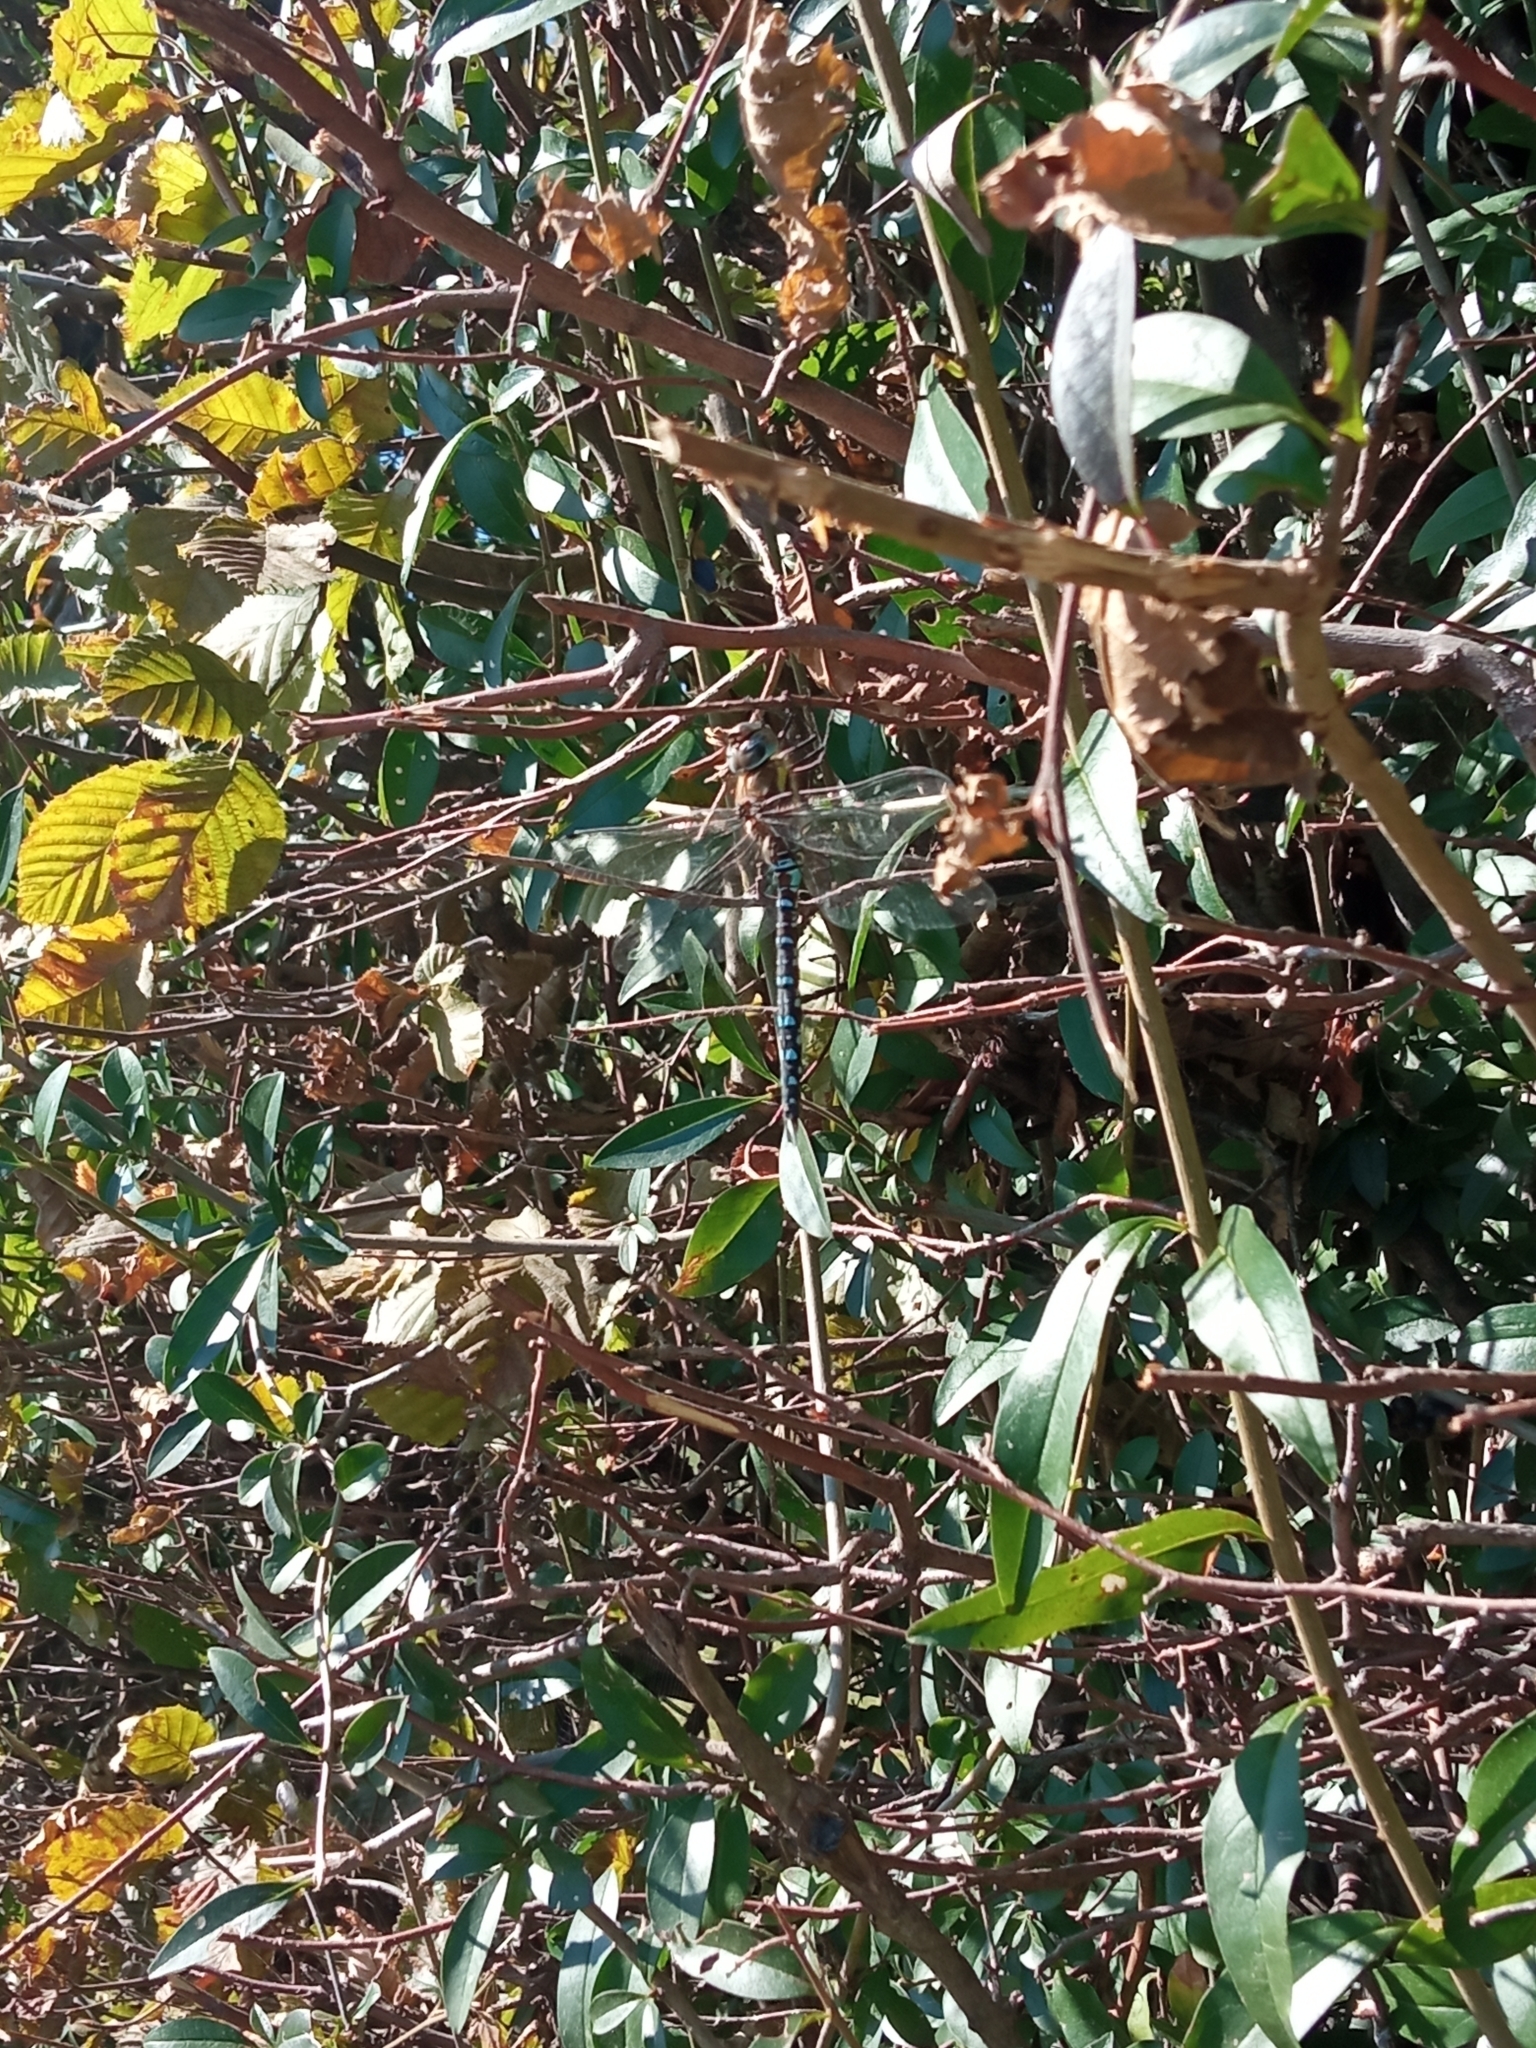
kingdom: Animalia
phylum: Arthropoda
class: Insecta
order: Odonata
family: Aeshnidae
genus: Aeshna
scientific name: Aeshna mixta
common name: Migrant hawker
